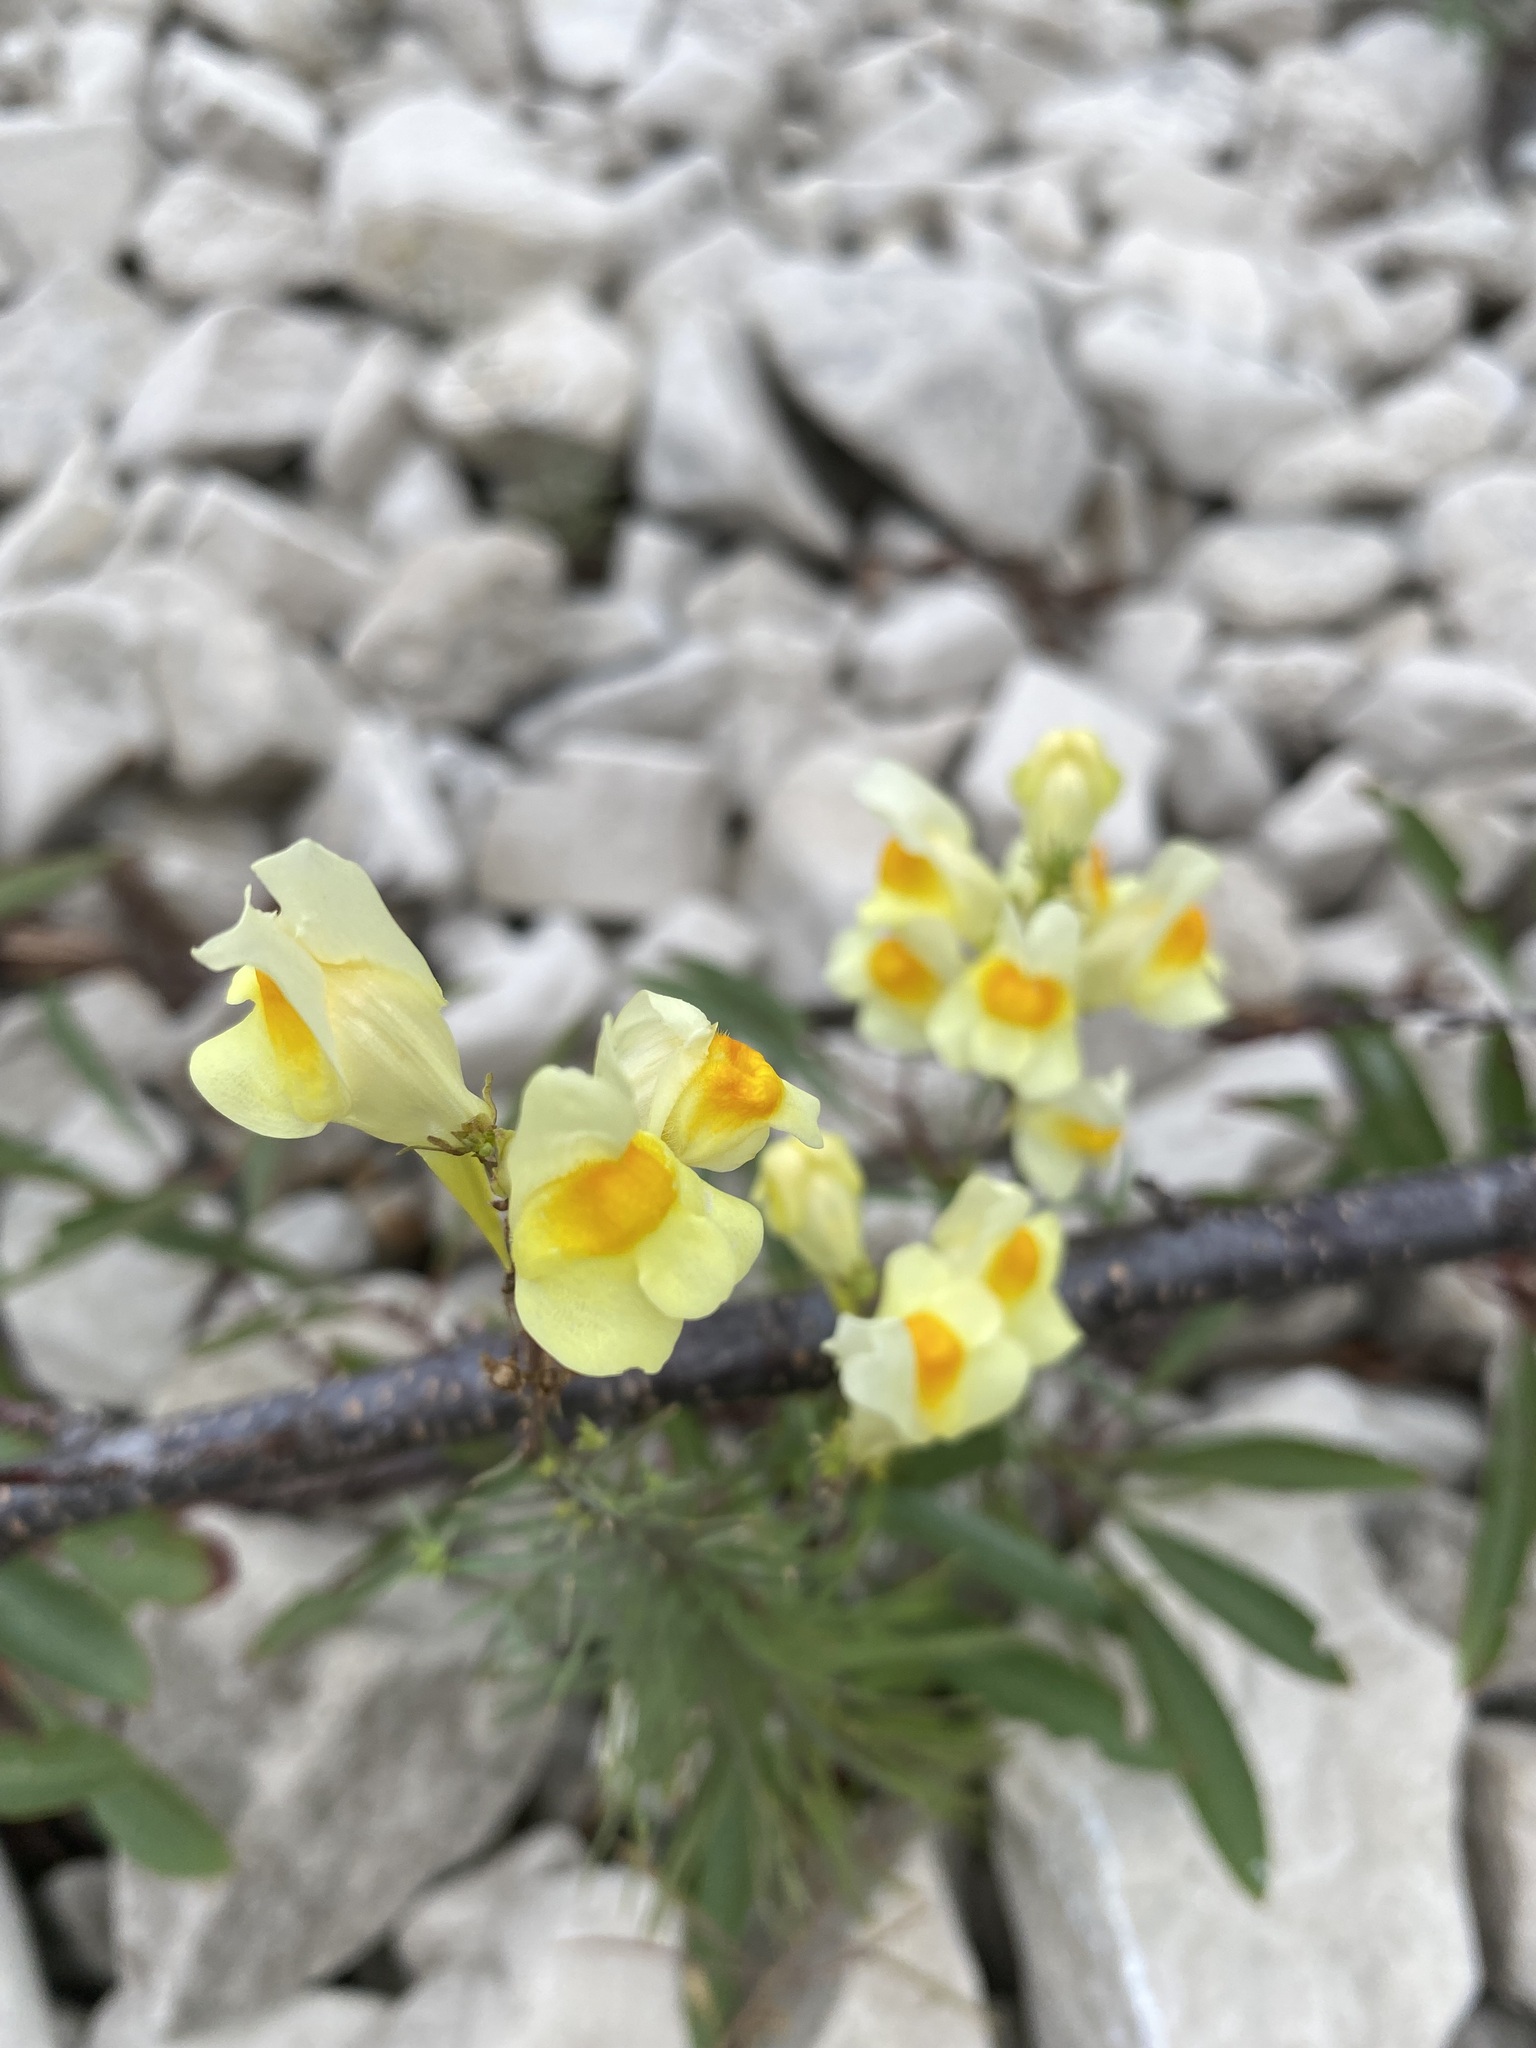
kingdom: Plantae
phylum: Tracheophyta
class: Magnoliopsida
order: Lamiales
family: Plantaginaceae
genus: Linaria
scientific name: Linaria vulgaris
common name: Butter and eggs
